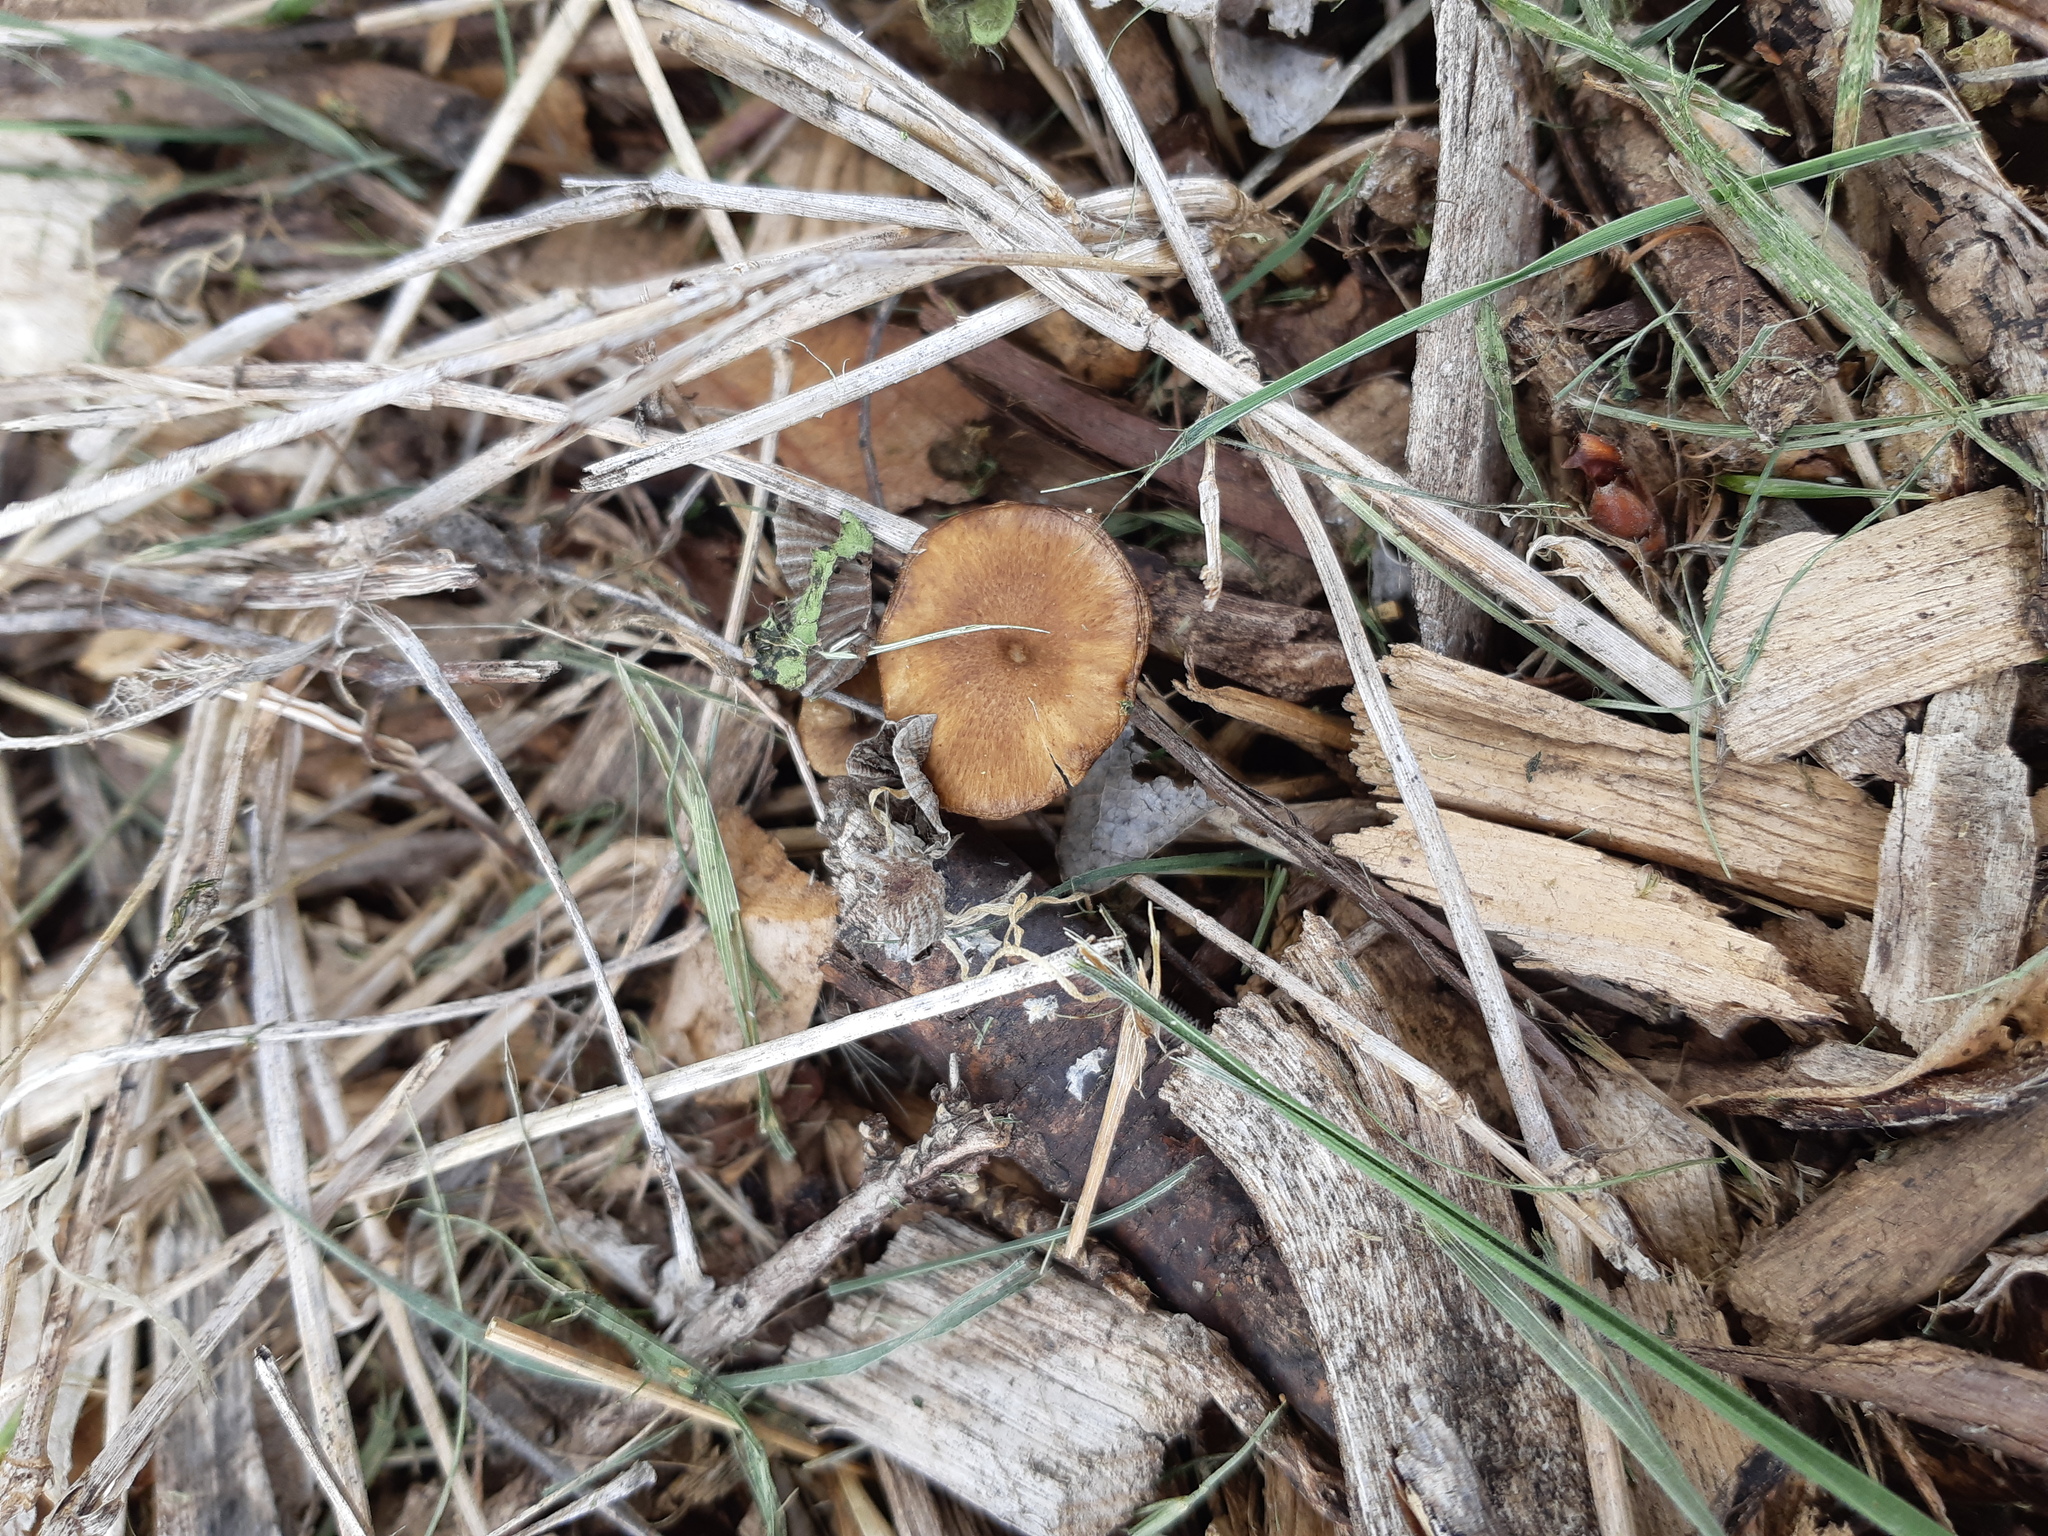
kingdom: Fungi
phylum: Basidiomycota
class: Agaricomycetes
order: Polyporales
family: Polyporaceae
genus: Lentinus
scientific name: Lentinus arcularius
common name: Spring polypore
